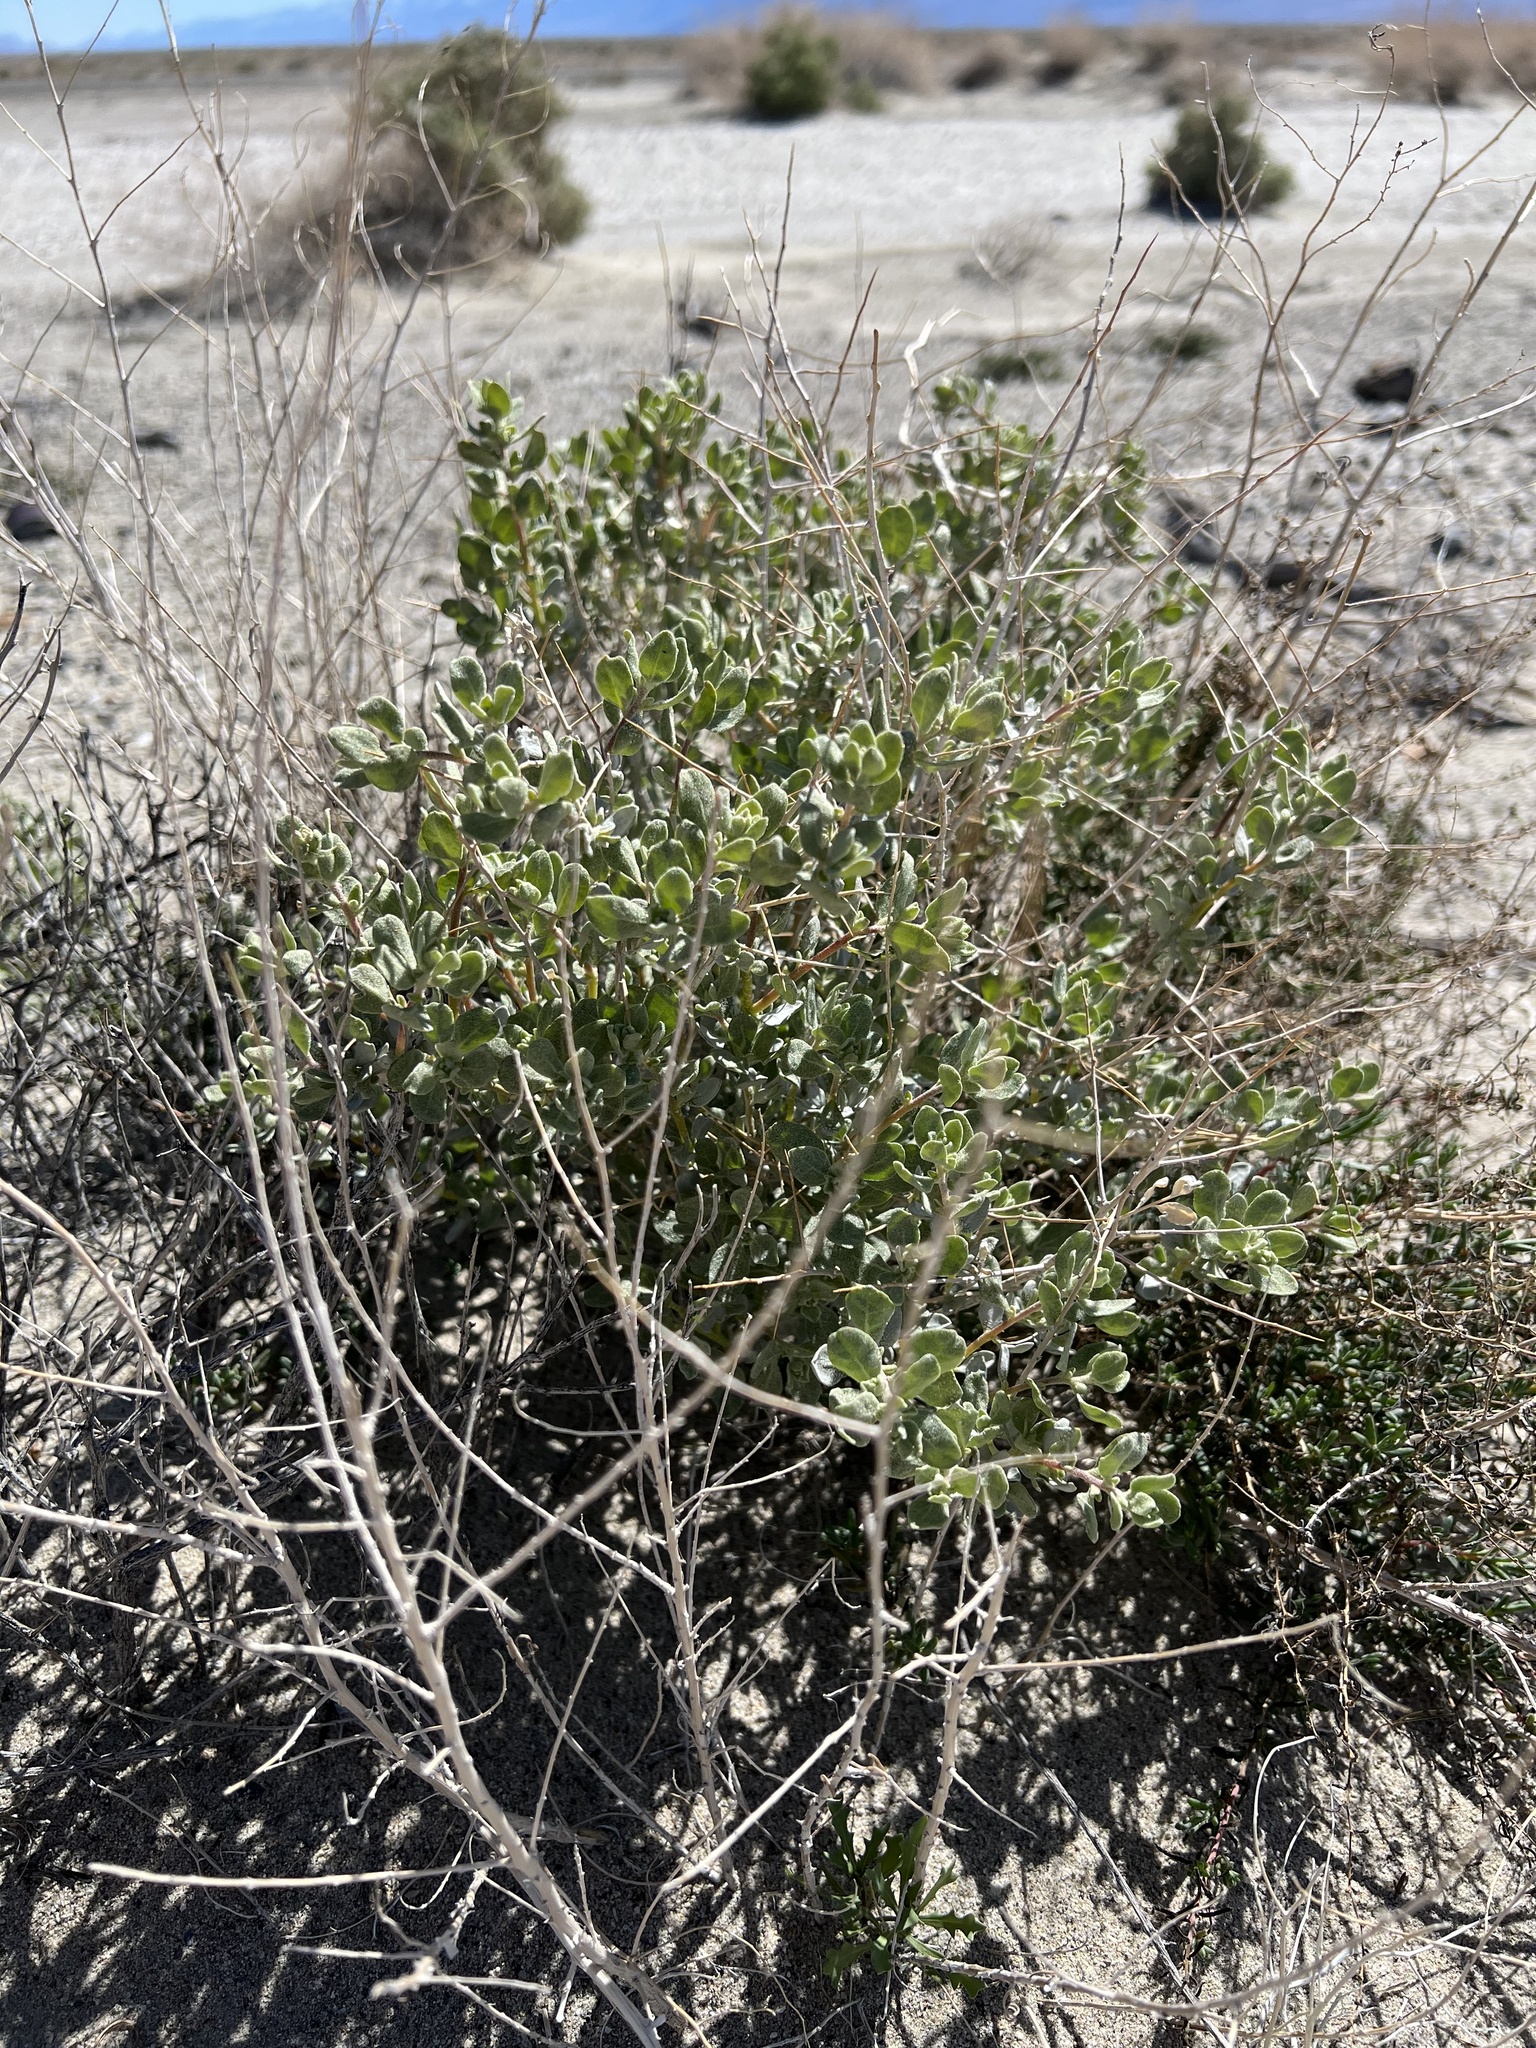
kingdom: Plantae
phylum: Tracheophyta
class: Magnoliopsida
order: Caryophyllales
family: Amaranthaceae
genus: Atriplex
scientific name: Atriplex confertifolia
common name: Shadscale
